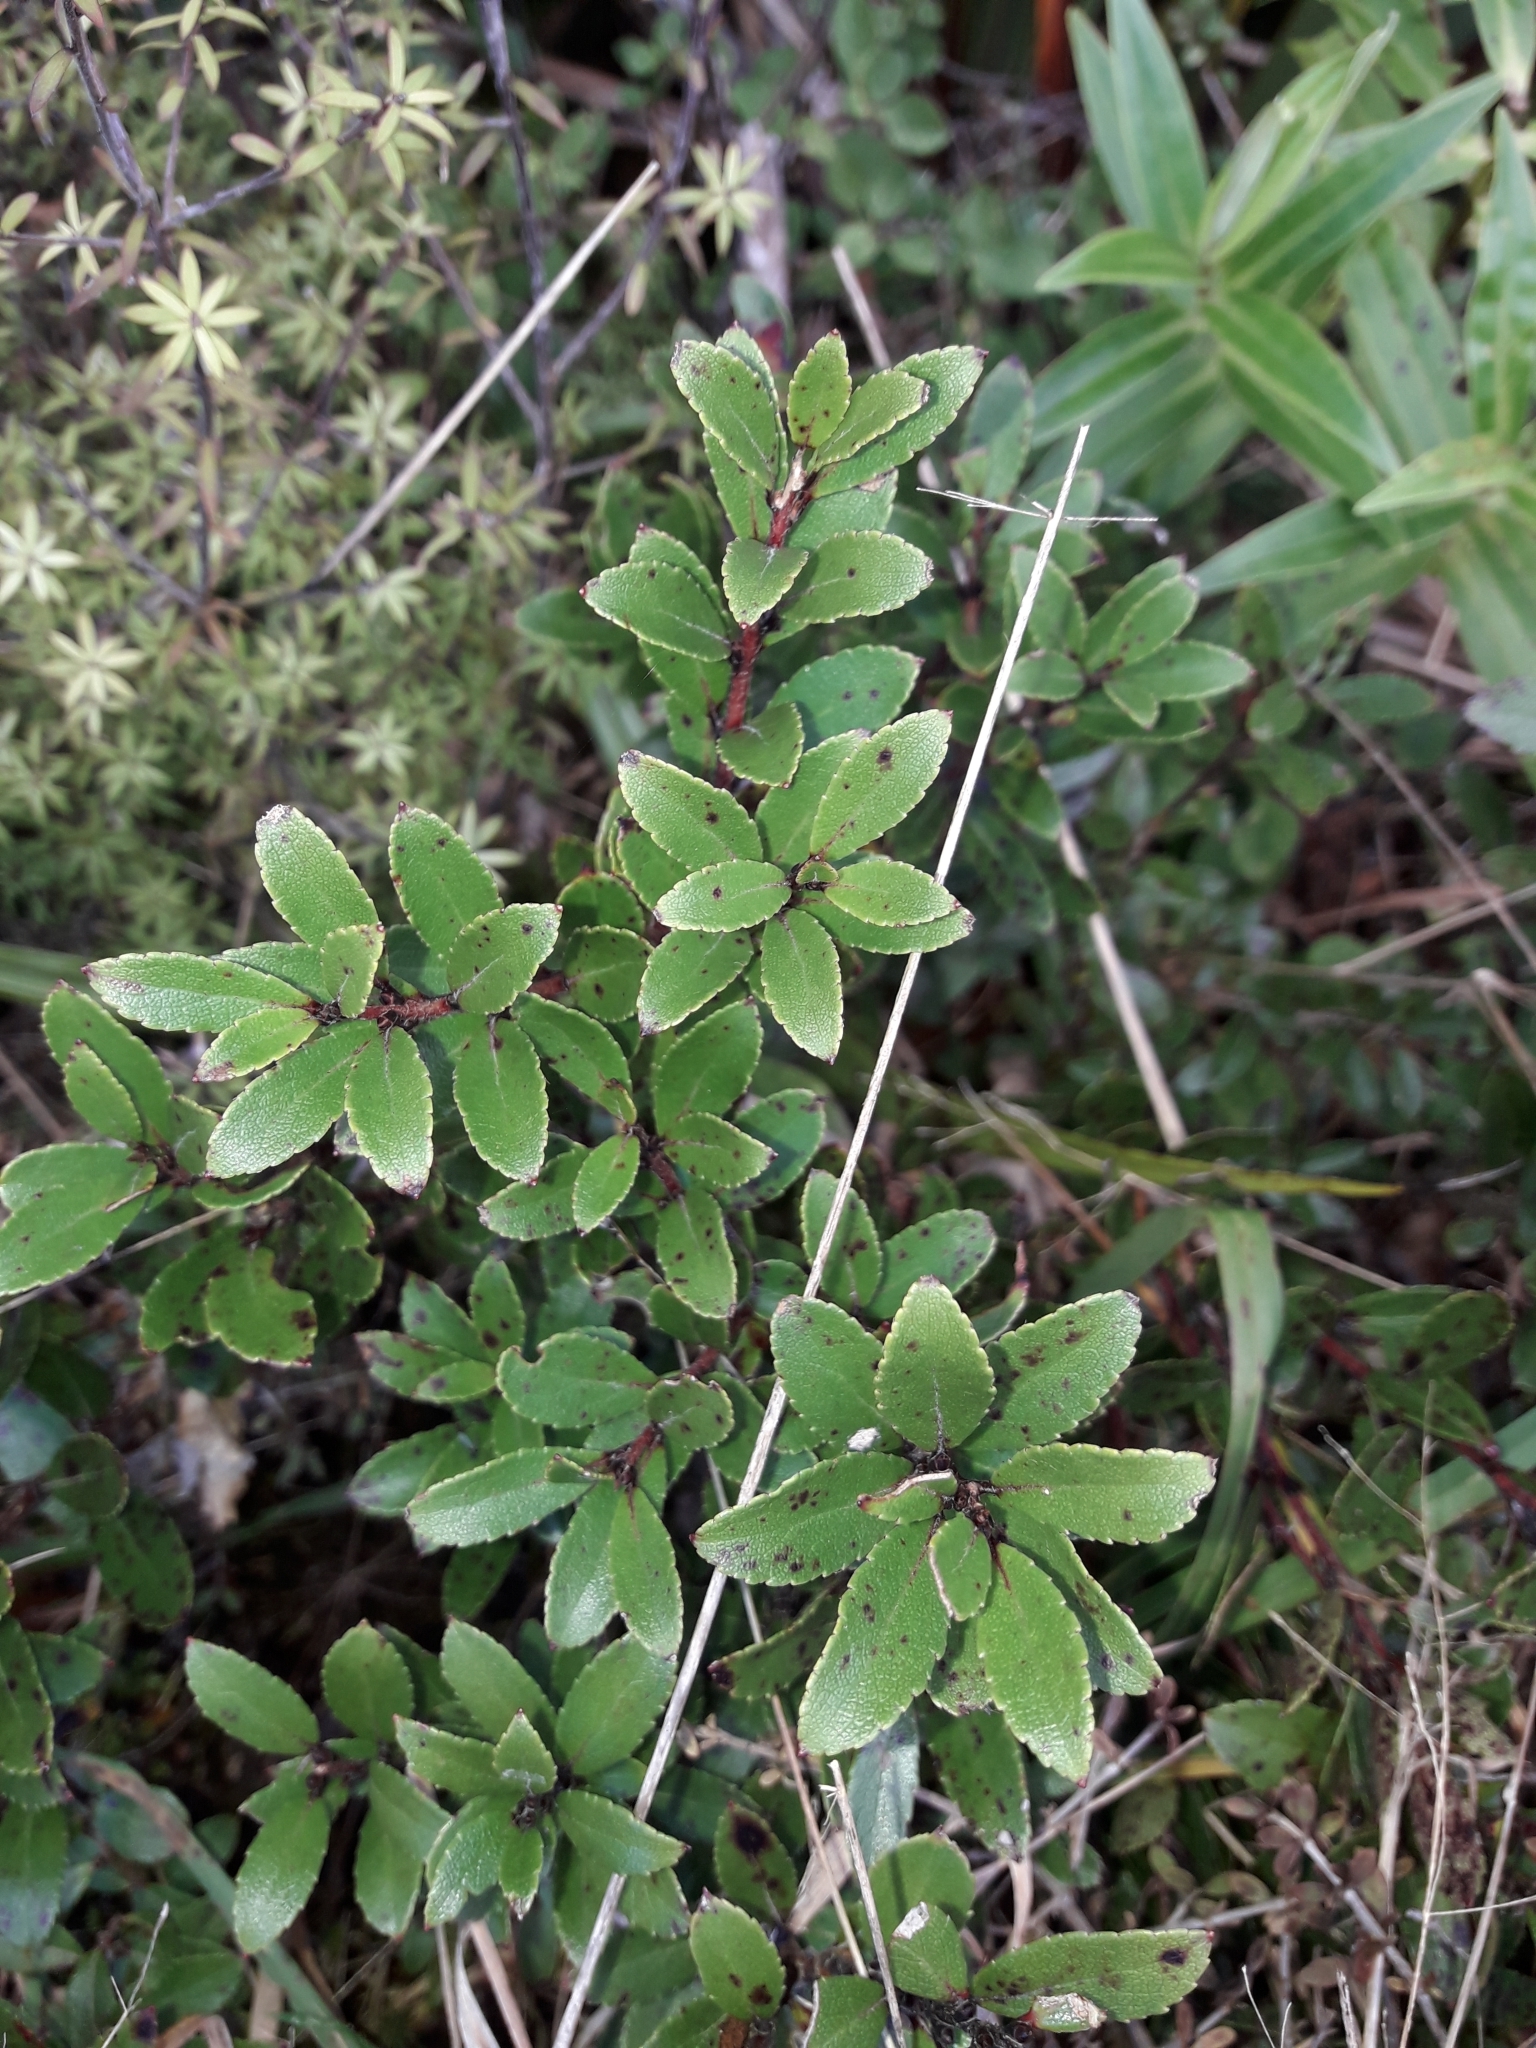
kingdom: Plantae
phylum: Tracheophyta
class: Magnoliopsida
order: Ericales
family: Ericaceae
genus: Gaultheria
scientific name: Gaultheria rupestris
